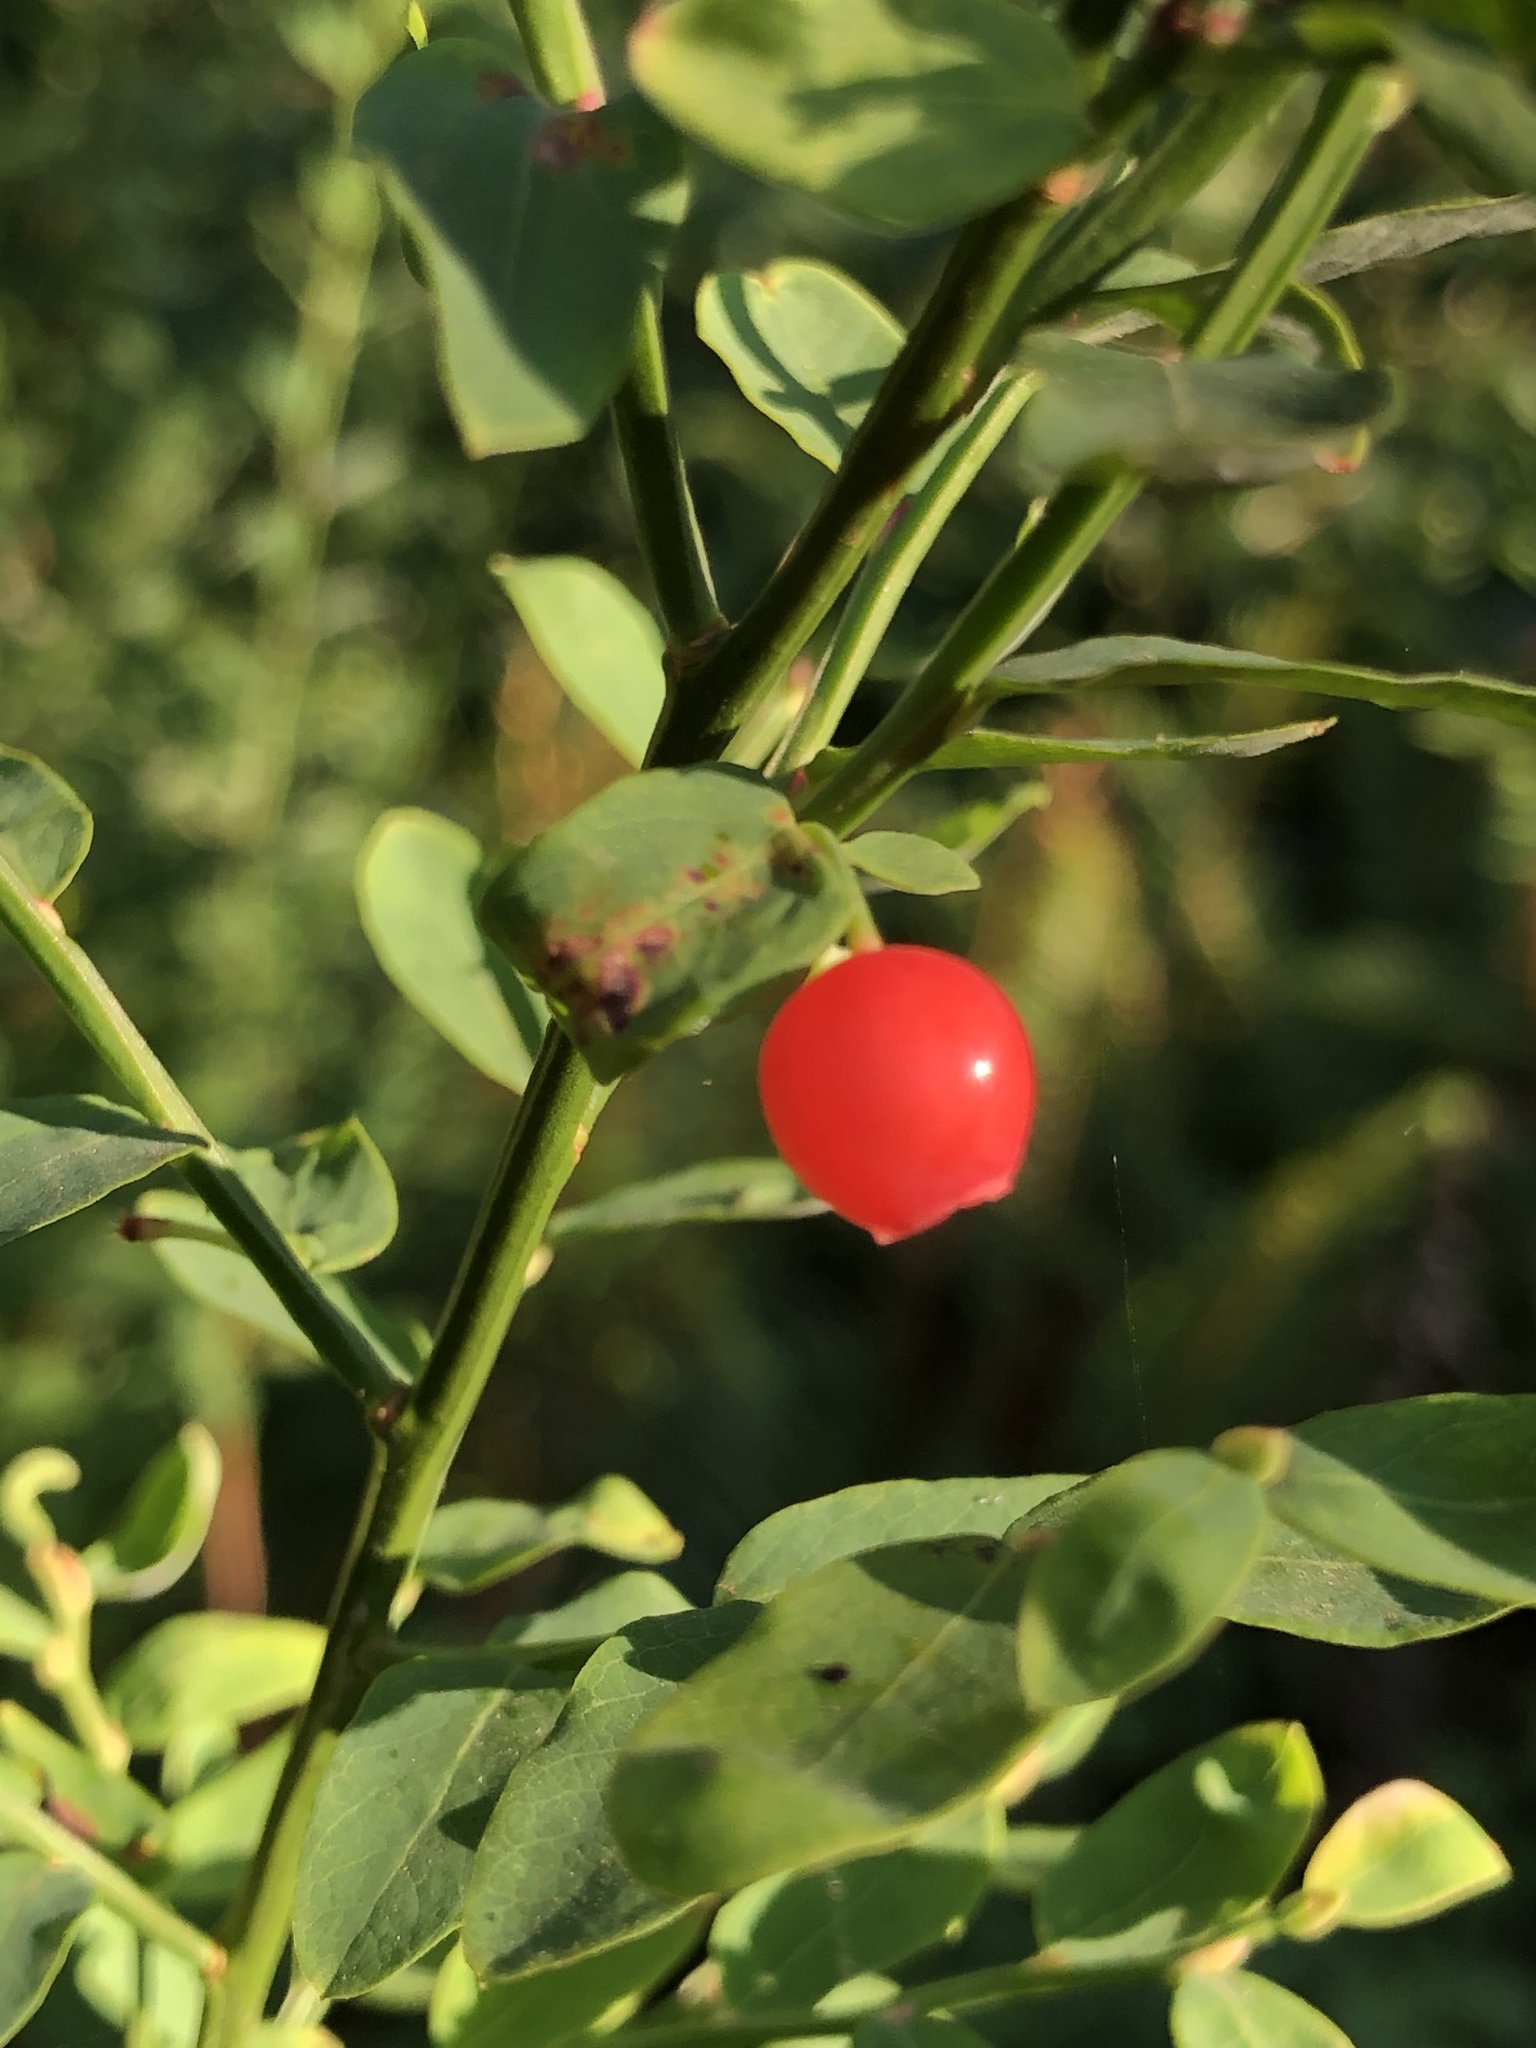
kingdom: Plantae
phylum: Tracheophyta
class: Magnoliopsida
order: Ericales
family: Ericaceae
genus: Vaccinium
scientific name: Vaccinium parvifolium
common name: Red-huckleberry
